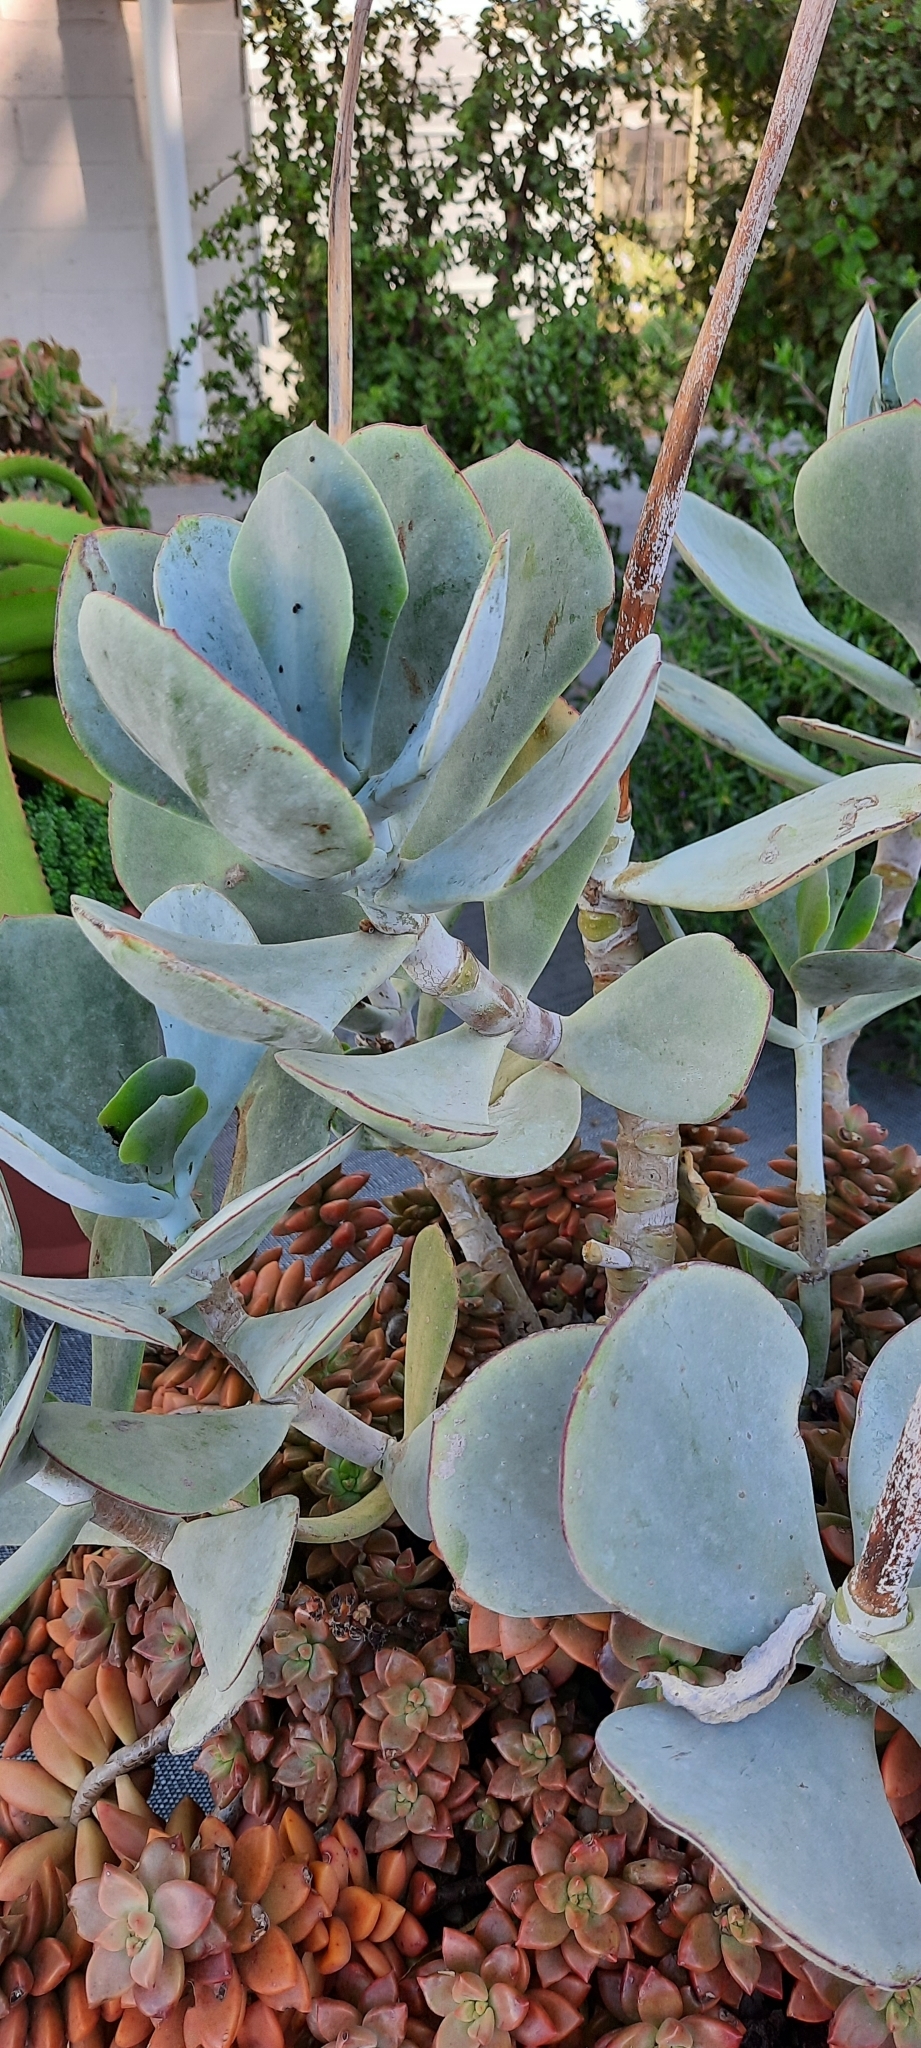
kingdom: Plantae
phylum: Tracheophyta
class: Magnoliopsida
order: Saxifragales
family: Crassulaceae
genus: Cotyledon
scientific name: Cotyledon orbiculata
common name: Pig's ear
